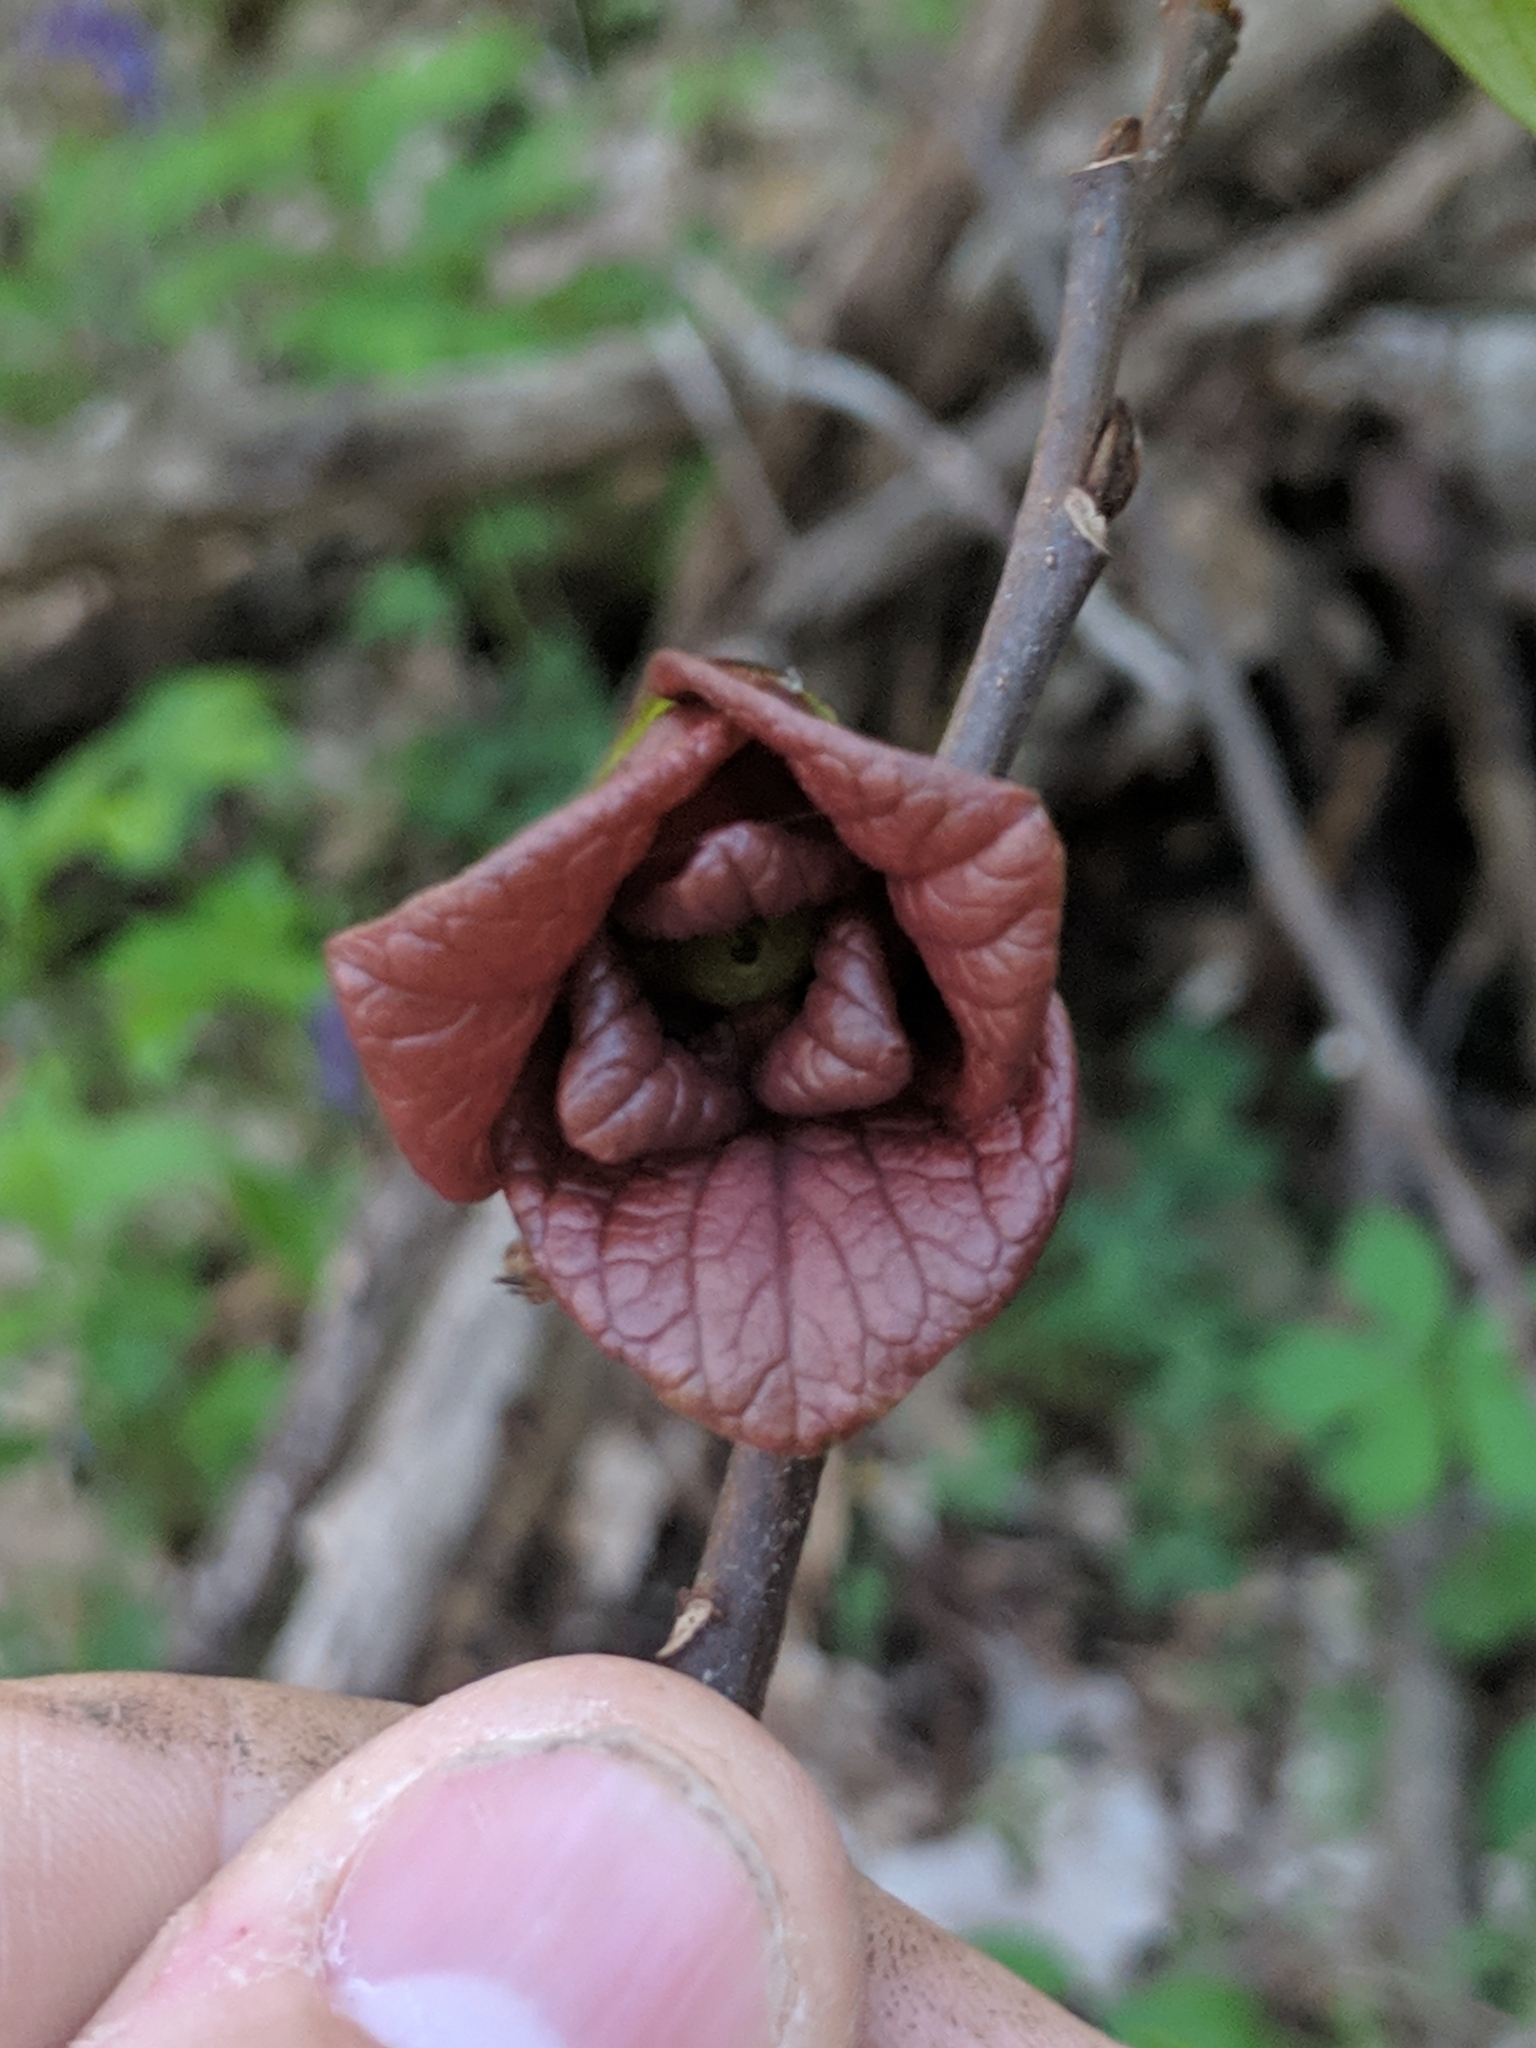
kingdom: Plantae
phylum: Tracheophyta
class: Magnoliopsida
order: Magnoliales
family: Annonaceae
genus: Asimina
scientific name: Asimina triloba
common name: Dog-banana
